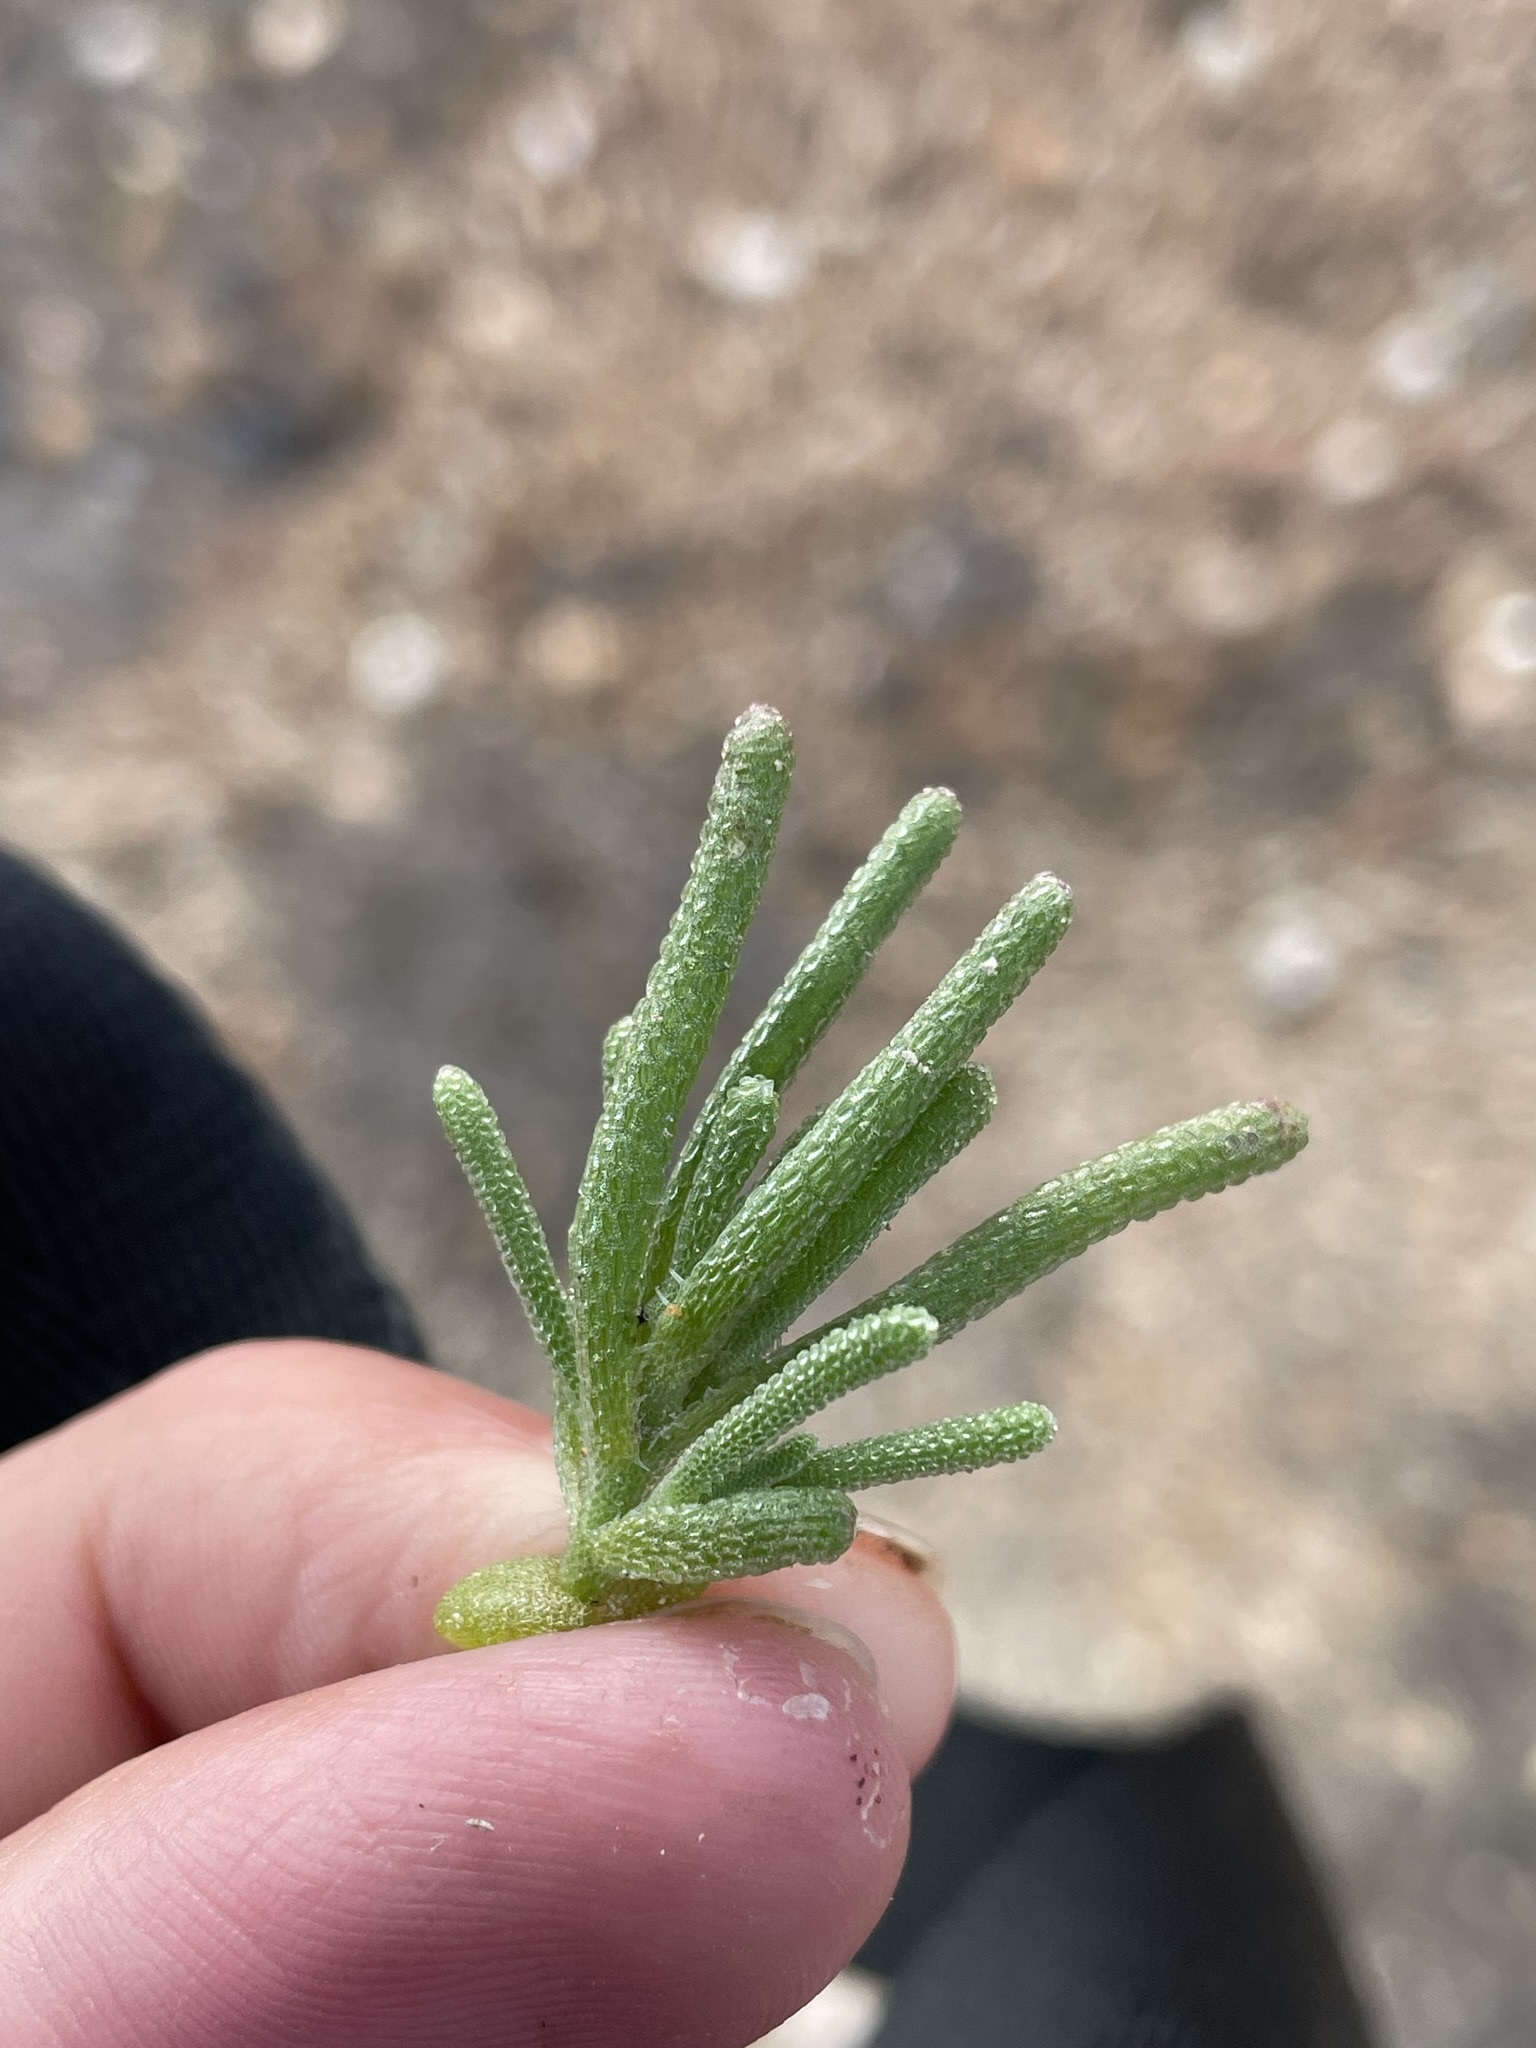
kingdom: Plantae
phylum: Tracheophyta
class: Magnoliopsida
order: Caryophyllales
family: Aizoaceae
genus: Mesembryanthemum
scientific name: Mesembryanthemum nodiflorum
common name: Slenderleaf iceplant
